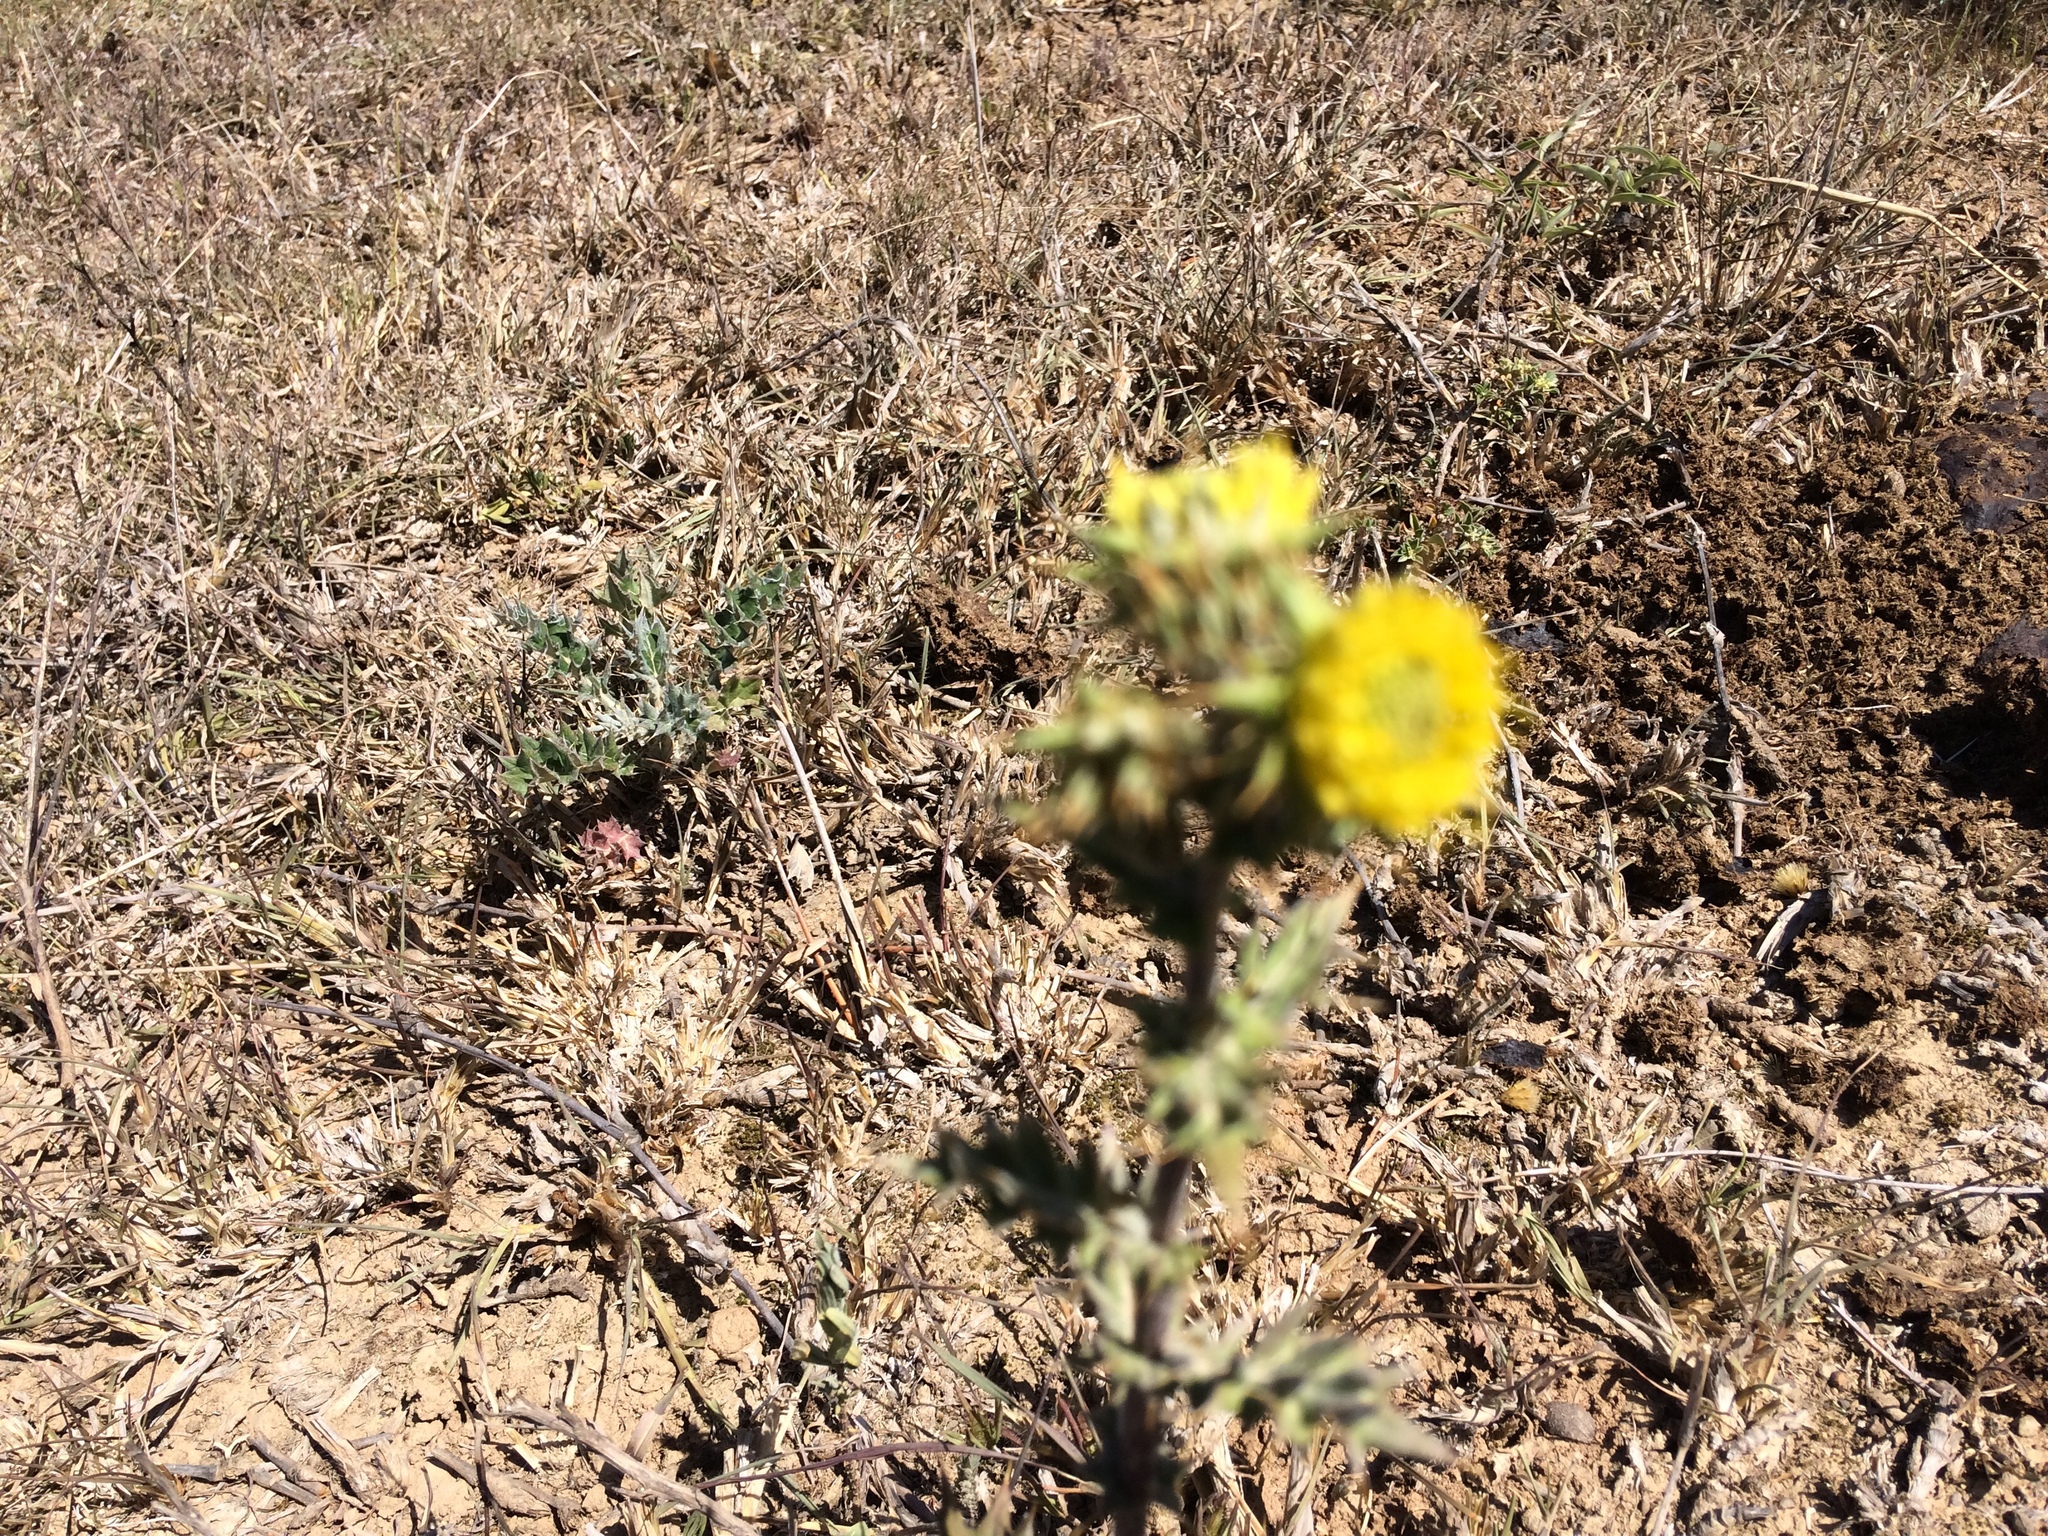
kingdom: Plantae
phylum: Tracheophyta
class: Magnoliopsida
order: Asterales
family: Asteraceae
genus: Berkheya
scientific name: Berkheya heterophylla
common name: Prickly gousblom
